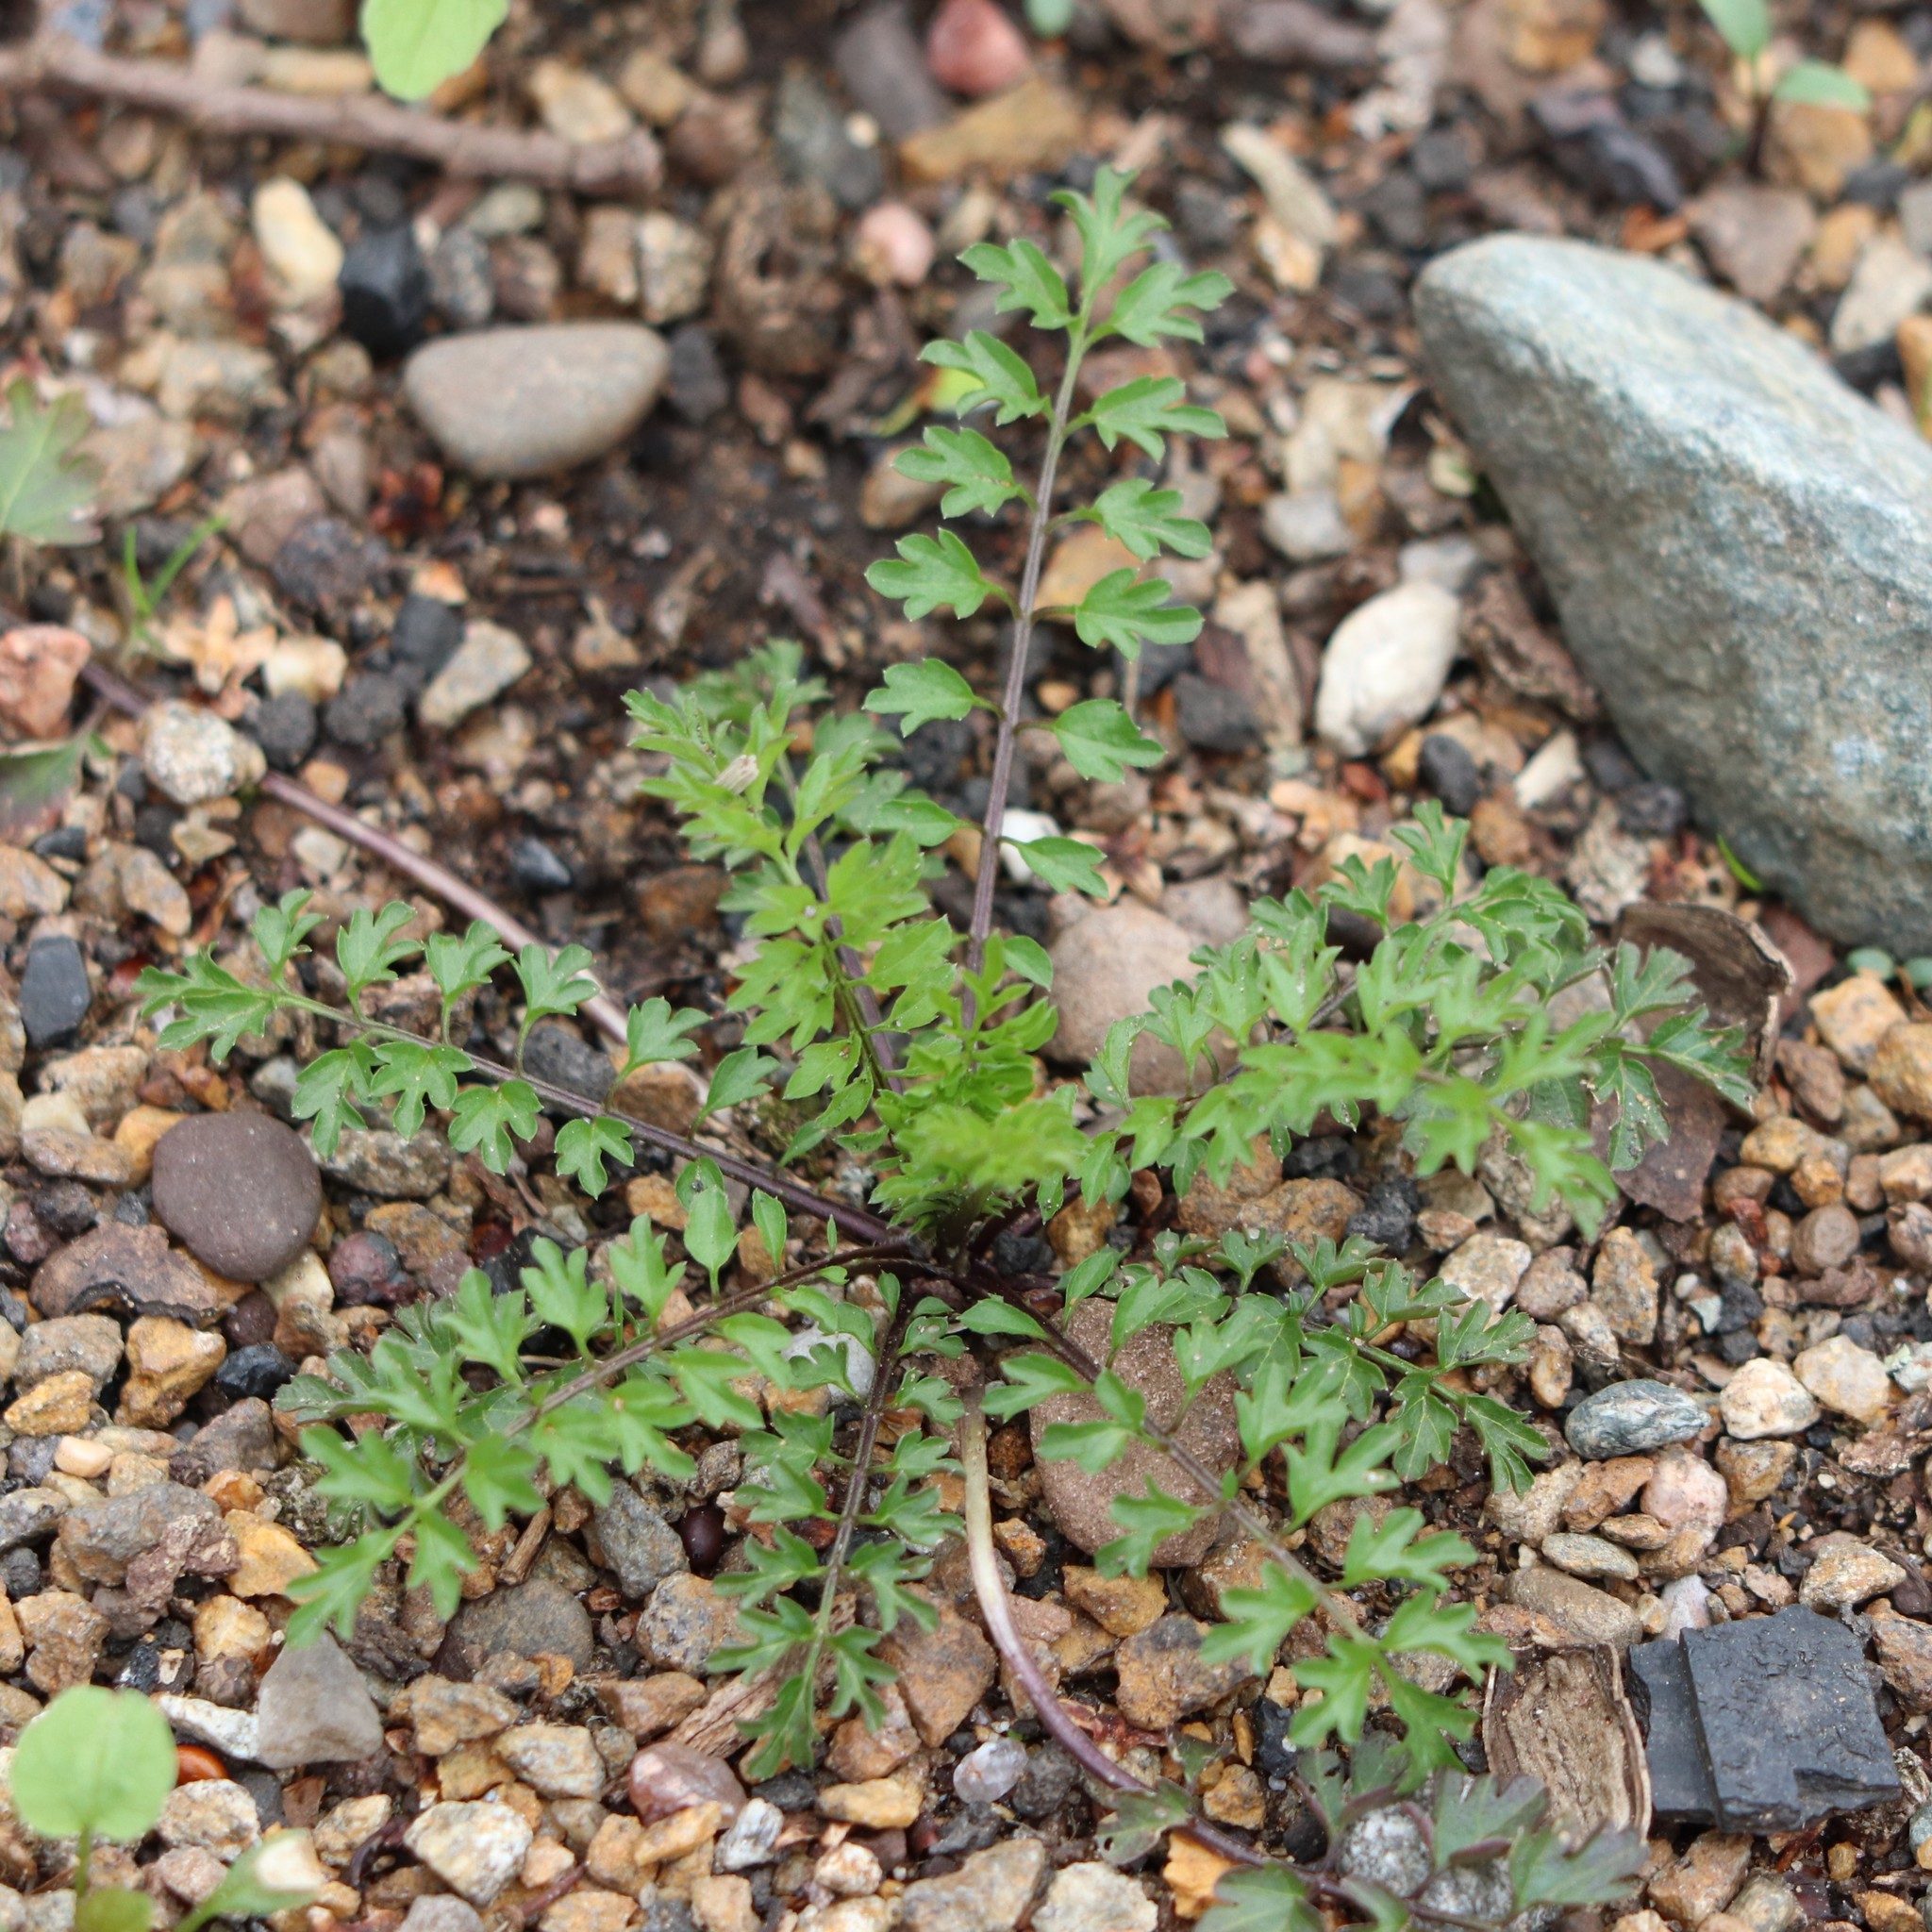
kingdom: Plantae
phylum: Tracheophyta
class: Magnoliopsida
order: Brassicales
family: Brassicaceae
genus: Cardamine
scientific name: Cardamine impatiens
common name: Narrow-leaved bitter-cress
